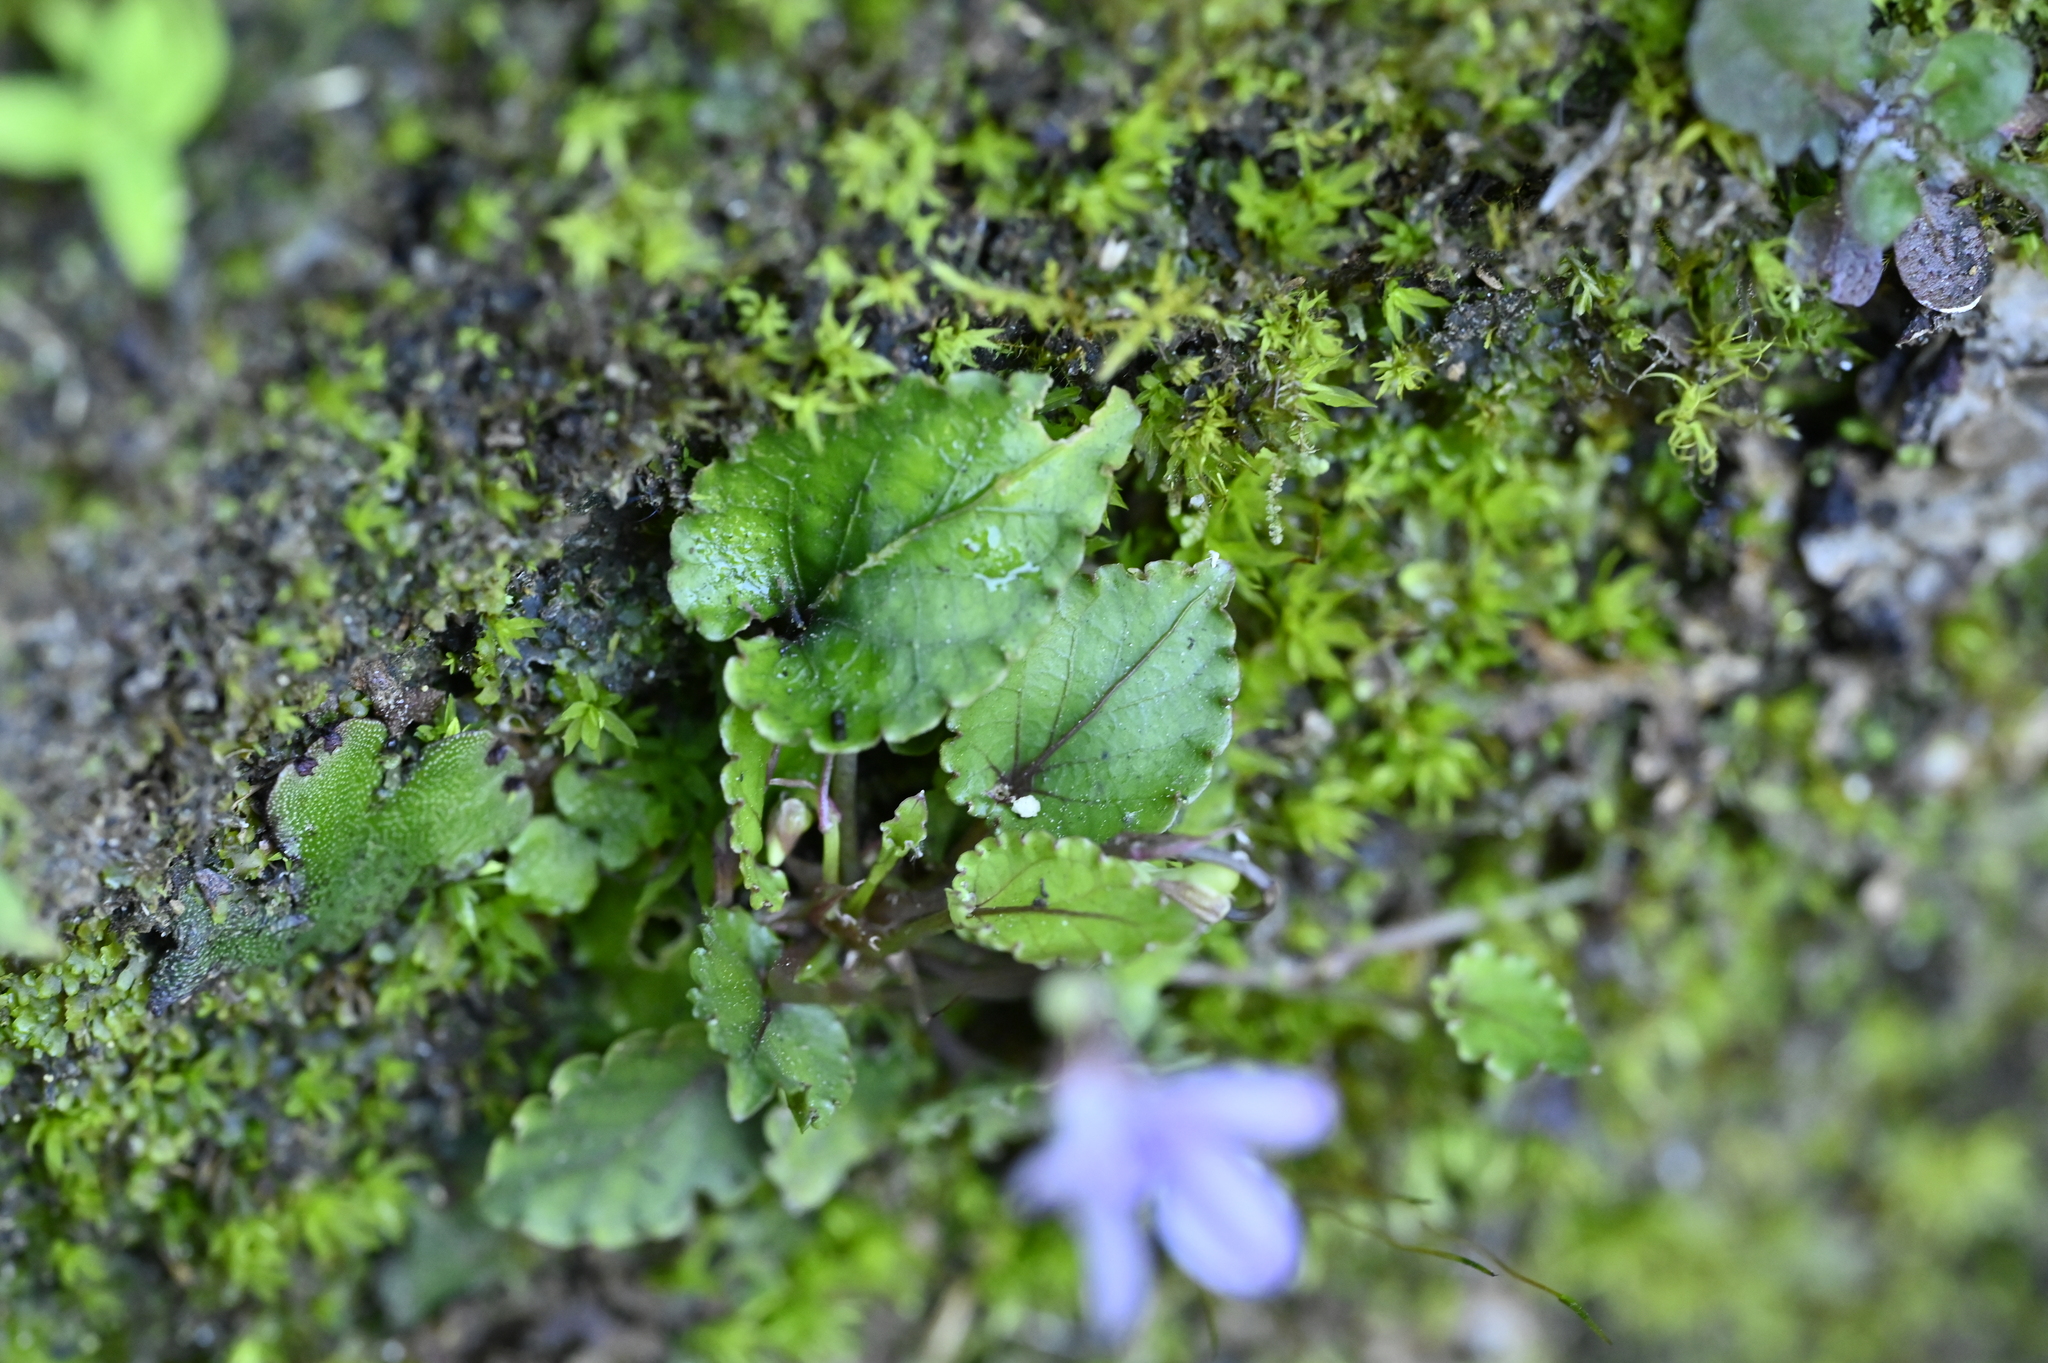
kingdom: Plantae
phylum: Tracheophyta
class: Magnoliopsida
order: Malpighiales
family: Violaceae
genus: Viola
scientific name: Viola mucronulifera
